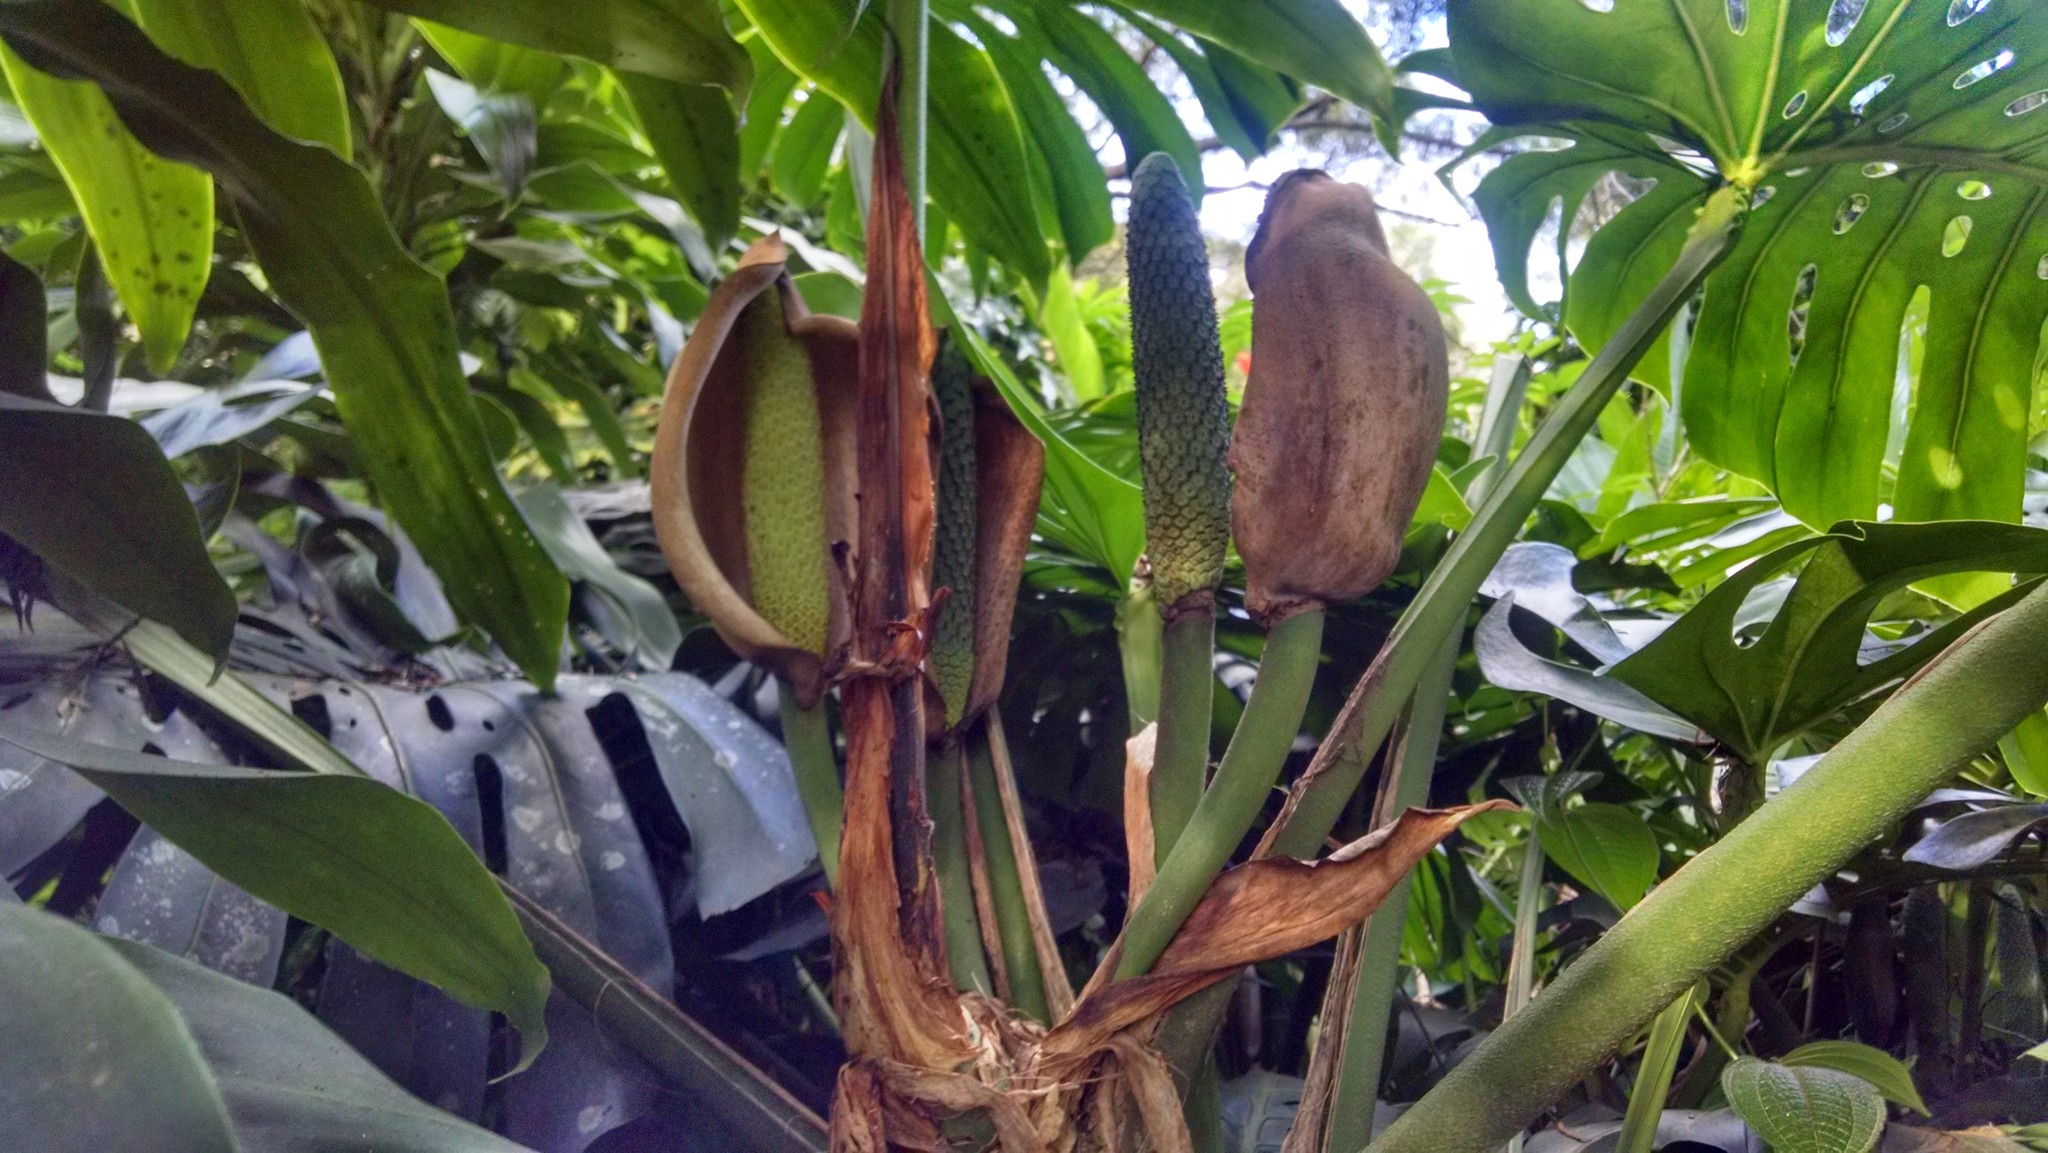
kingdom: Plantae
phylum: Tracheophyta
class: Liliopsida
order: Alismatales
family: Araceae
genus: Monstera
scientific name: Monstera deliciosa
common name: Cut-leaf-philodendron
